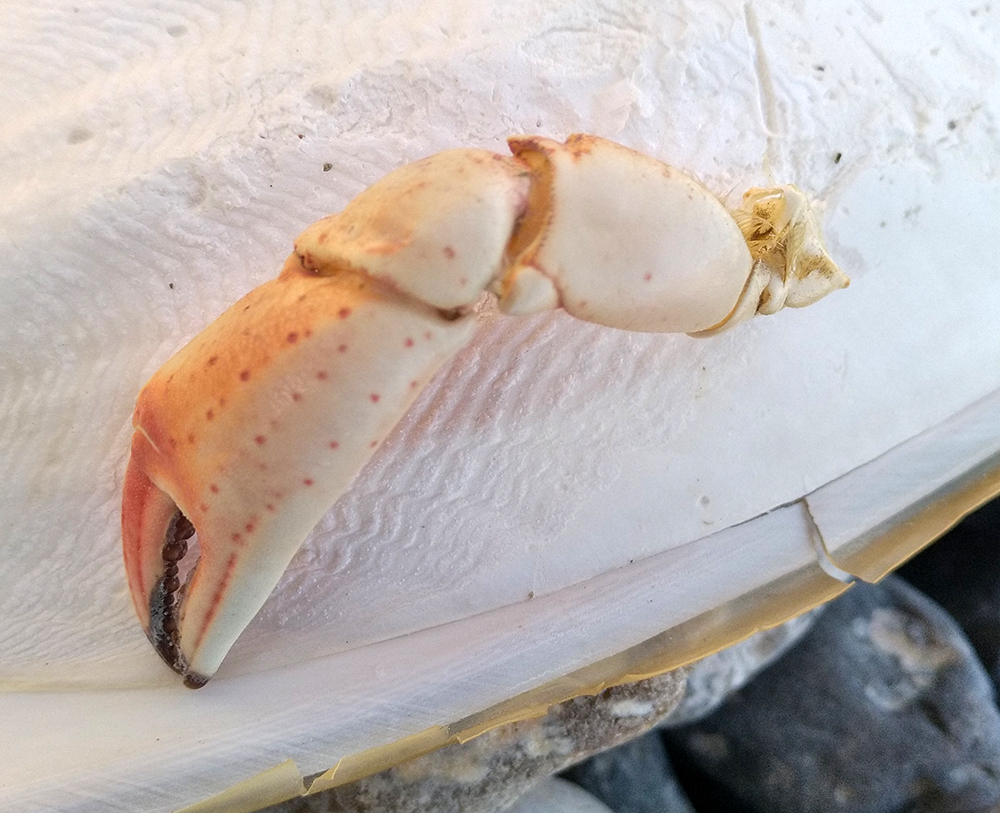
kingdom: Animalia
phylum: Arthropoda
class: Malacostraca
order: Decapoda
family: Carcinidae
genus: Carcinus
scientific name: Carcinus maenas
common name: European green crab
